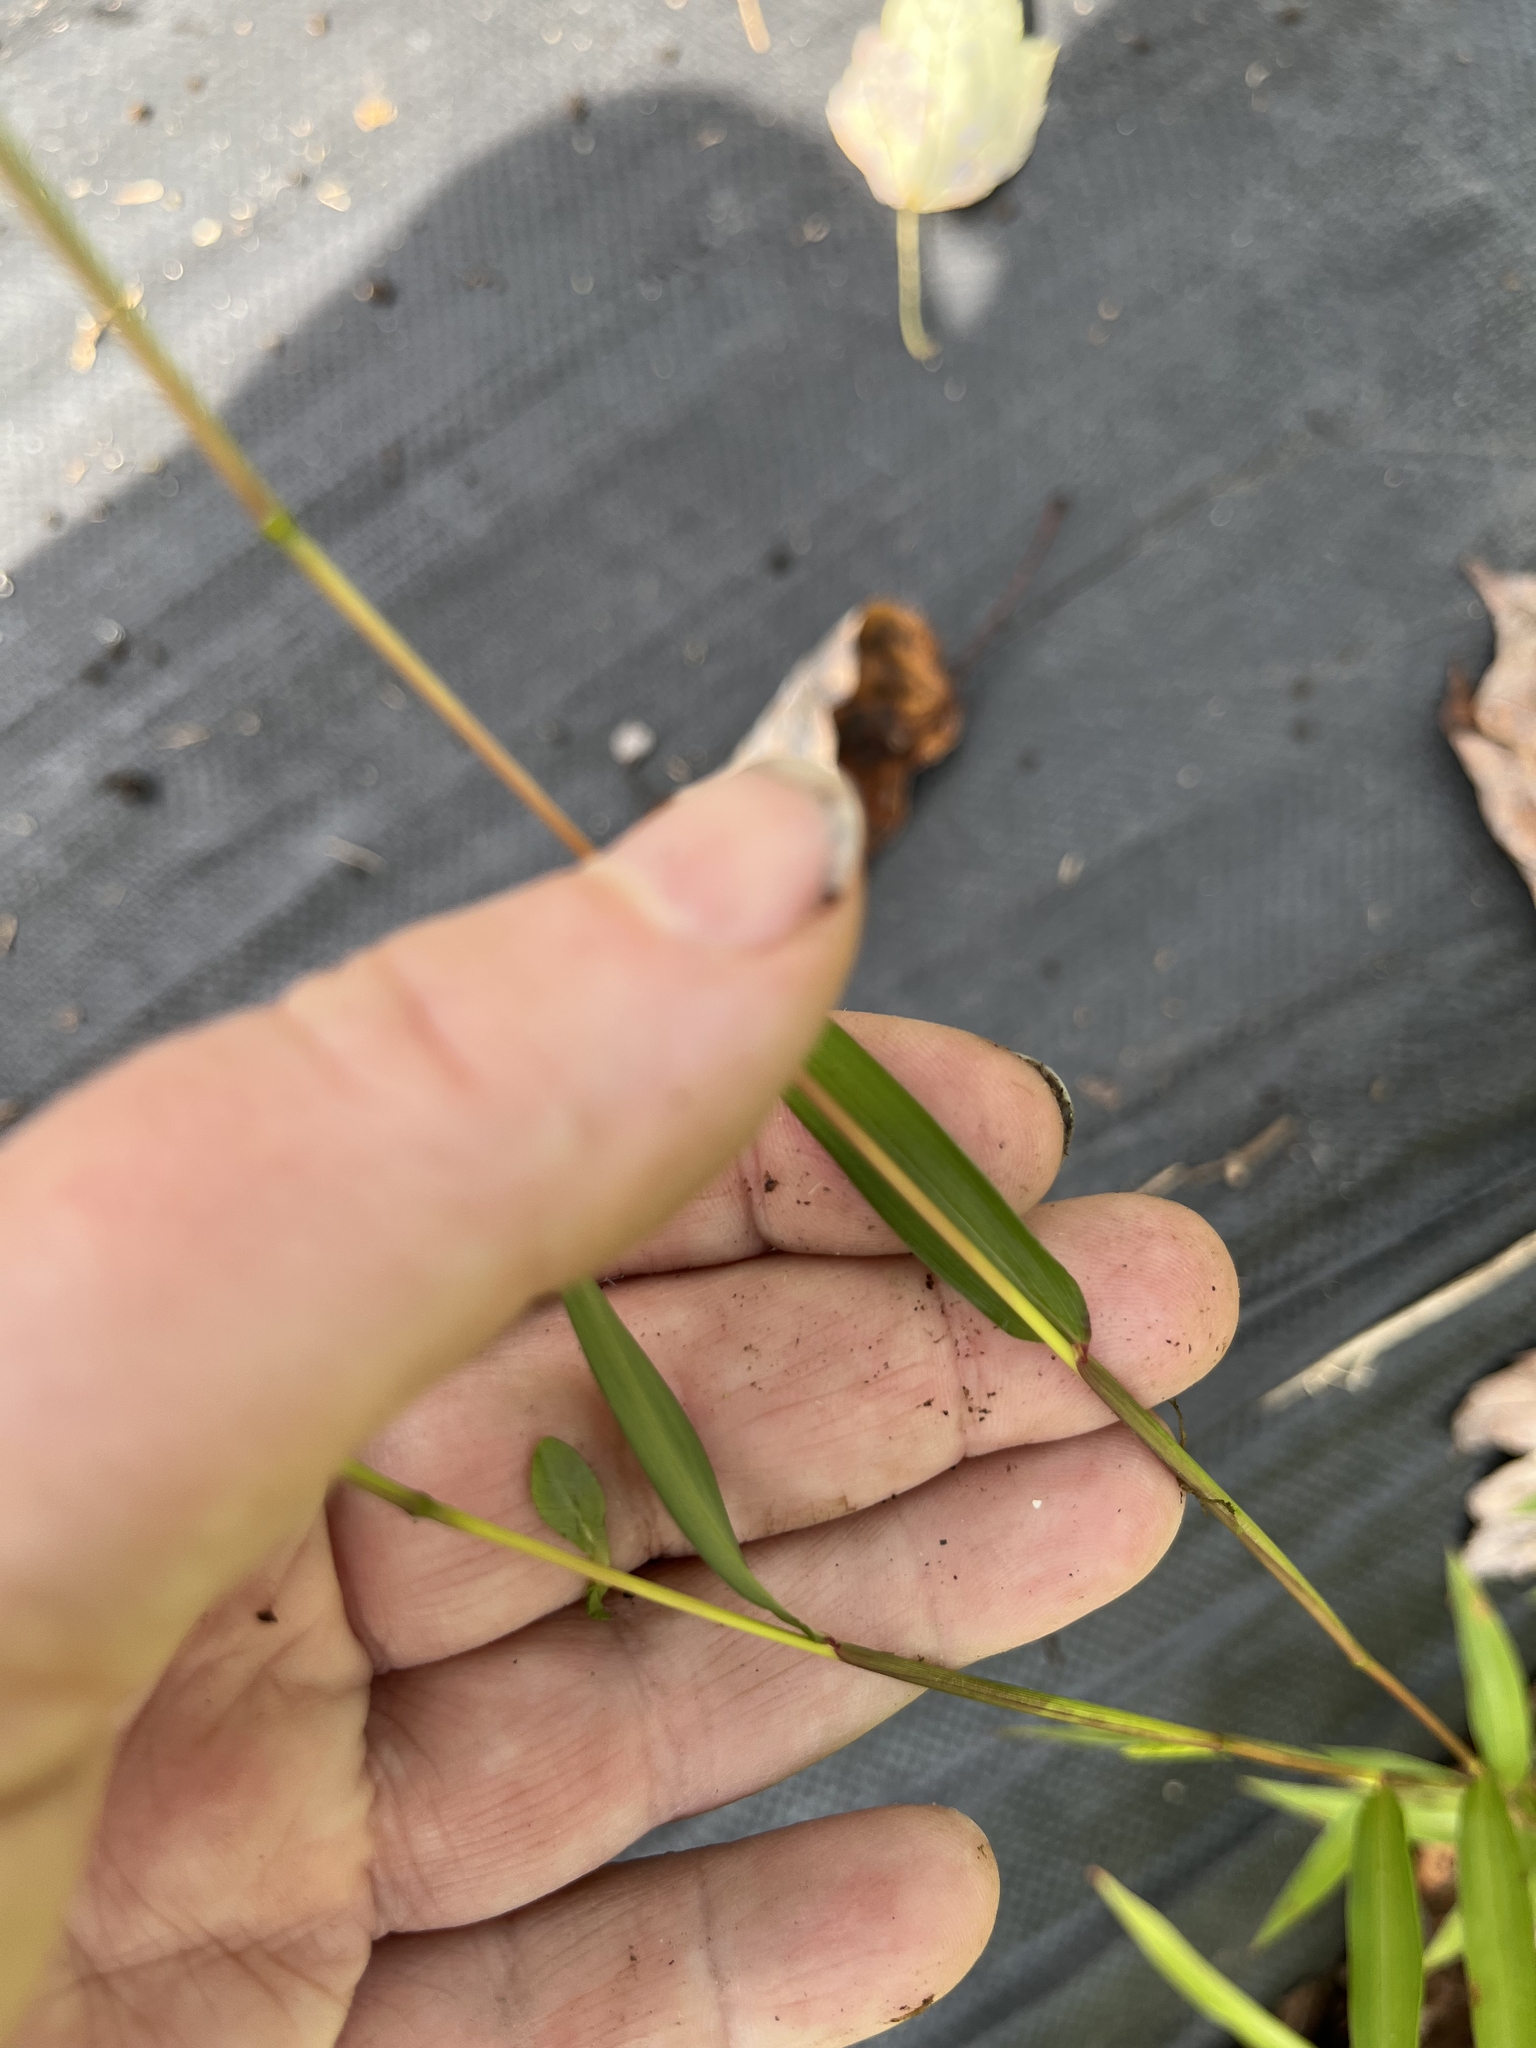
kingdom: Plantae
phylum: Tracheophyta
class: Liliopsida
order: Poales
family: Poaceae
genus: Microstegium
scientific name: Microstegium vimineum
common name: Japanese stiltgrass
